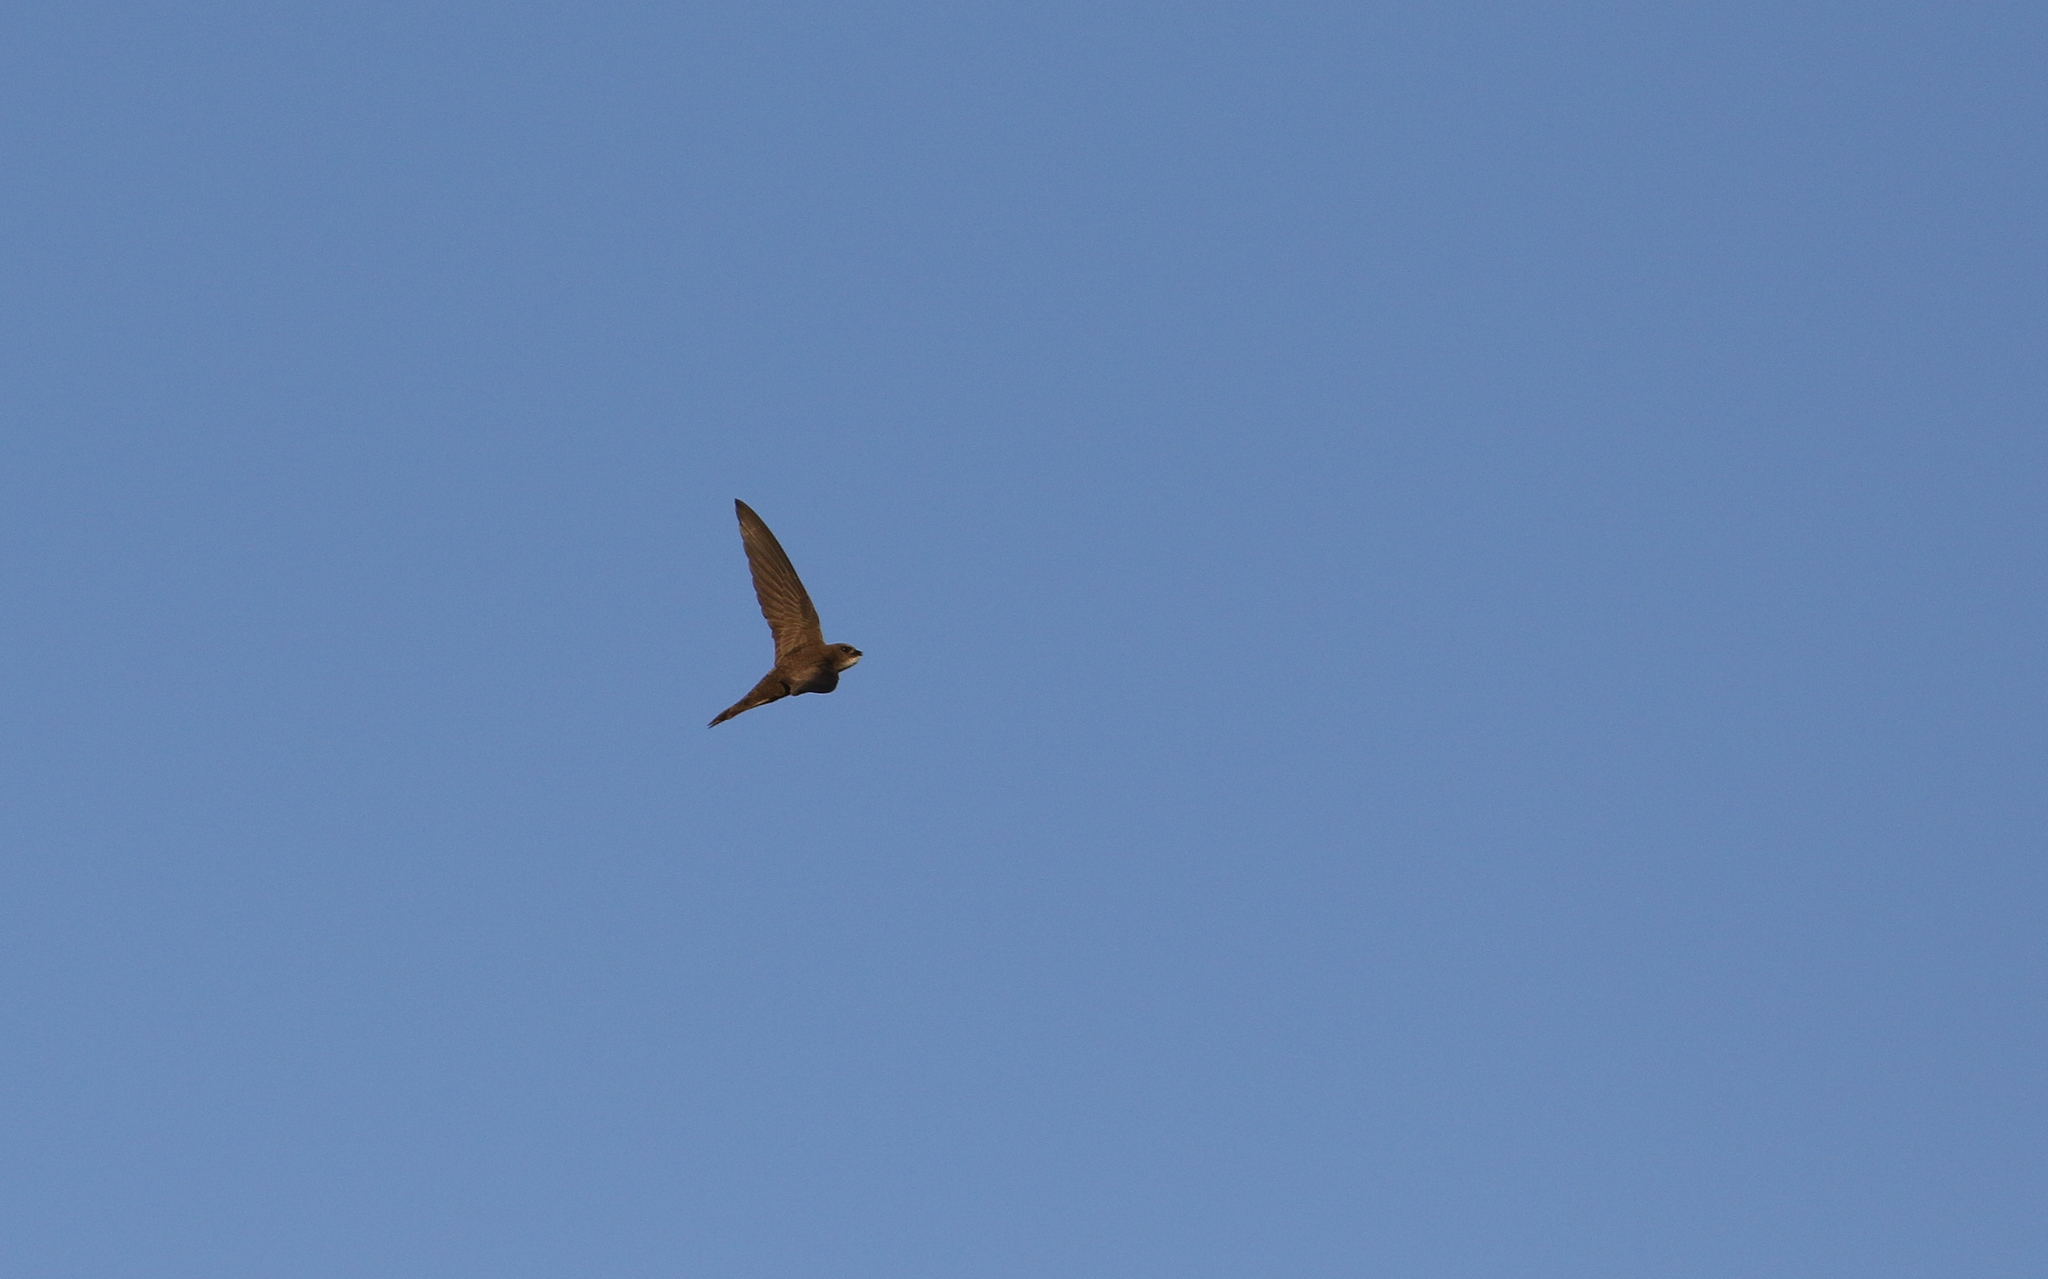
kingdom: Animalia
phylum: Chordata
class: Aves
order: Apodiformes
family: Apodidae
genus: Apus
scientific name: Apus pallidus
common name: Pallid swift
